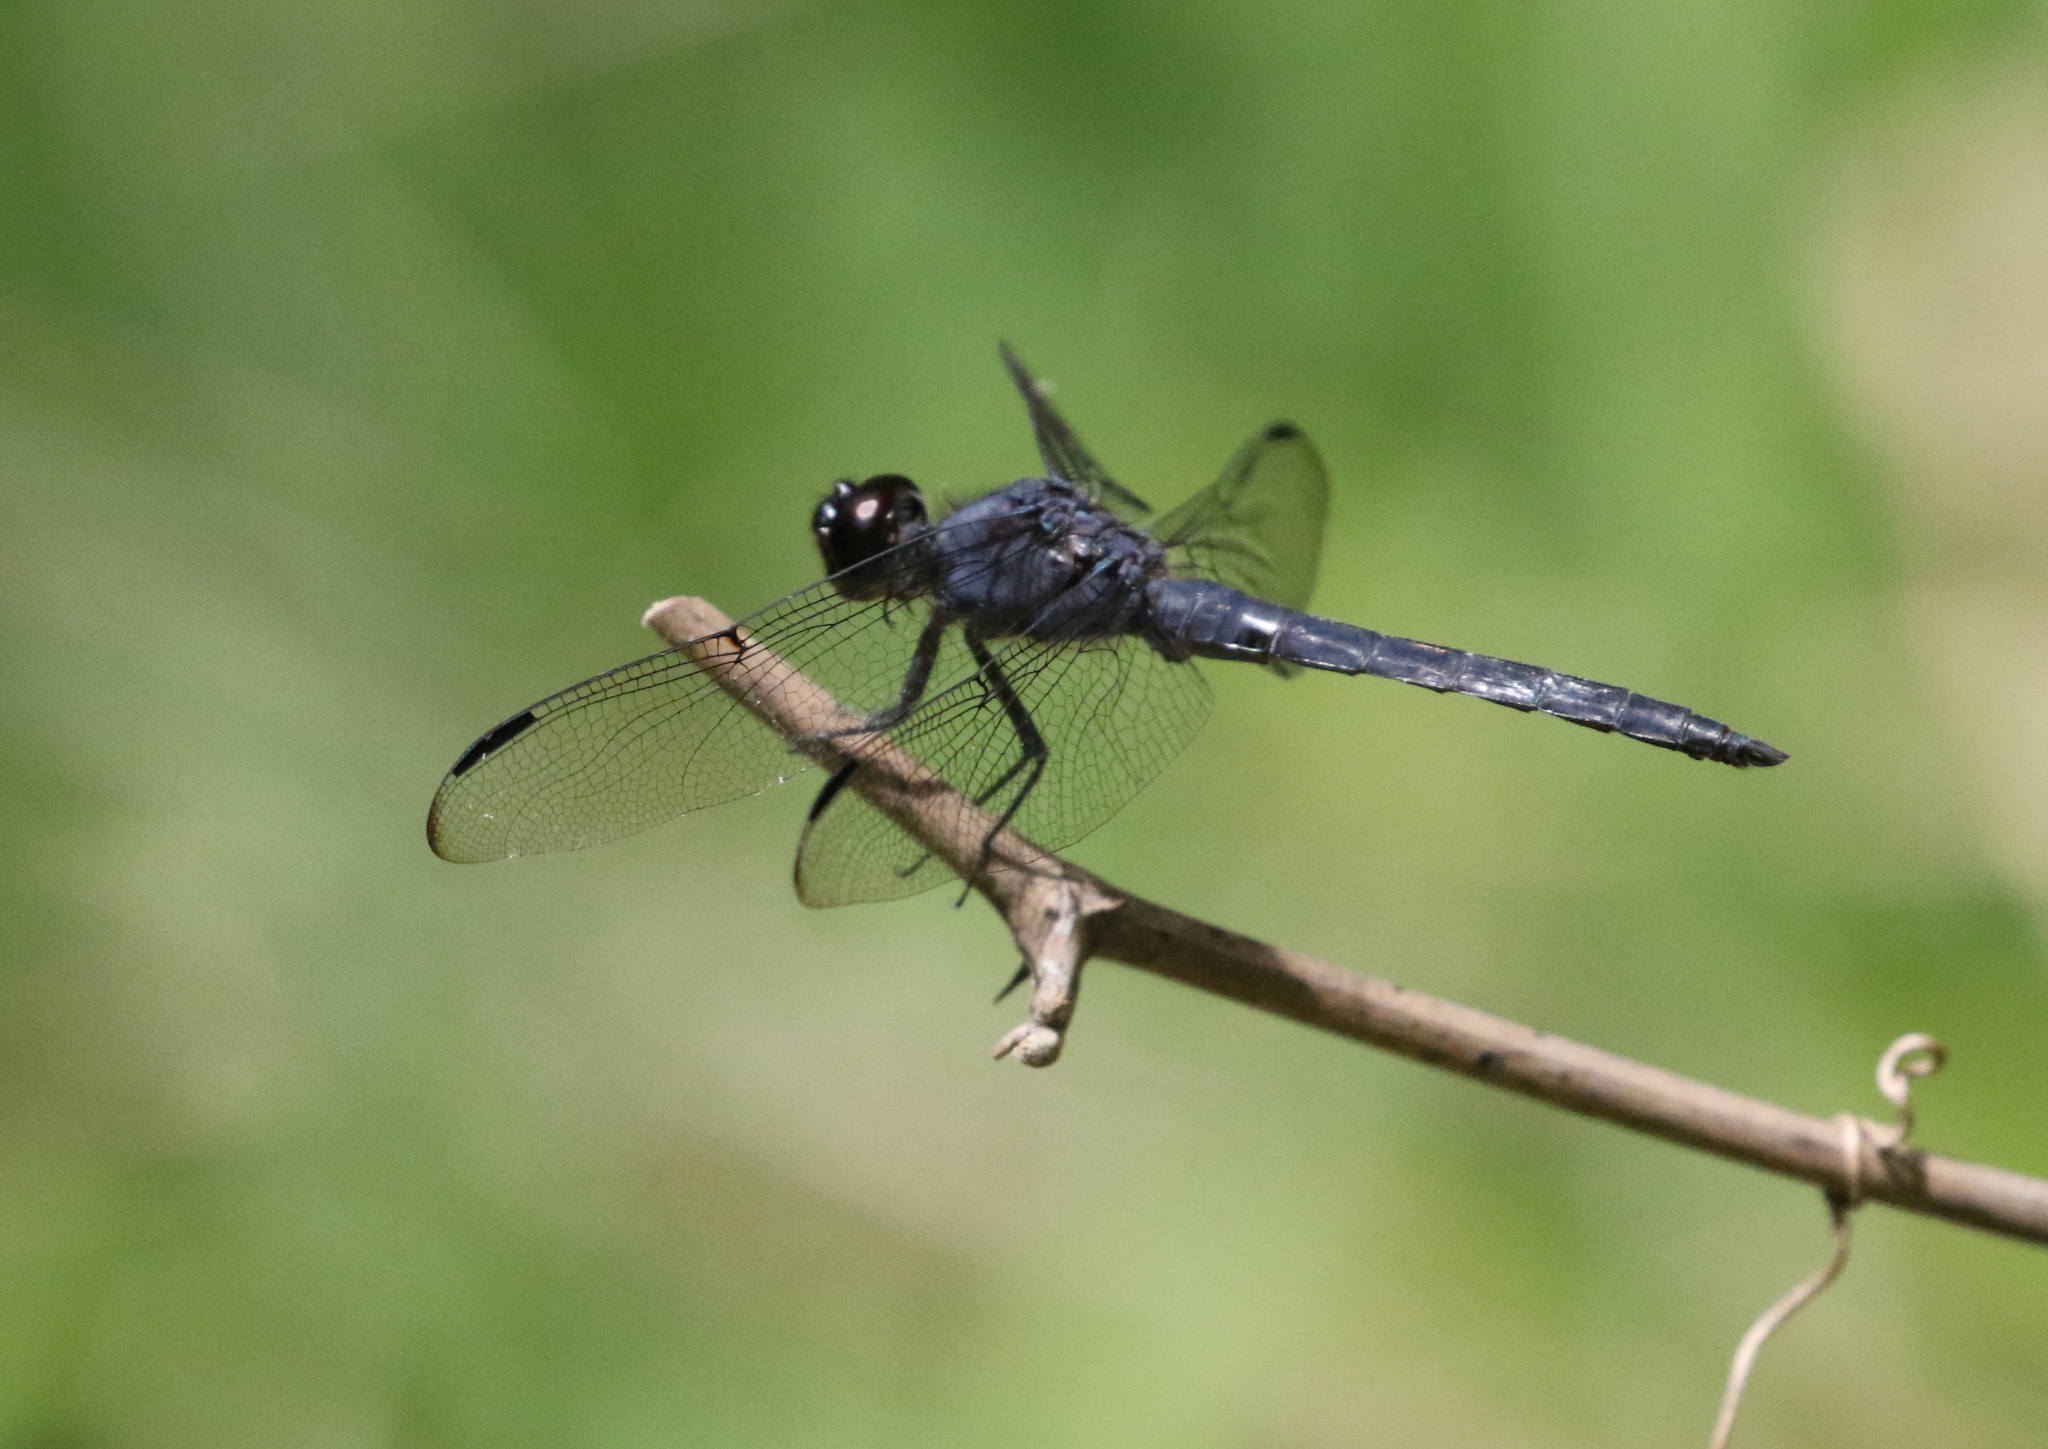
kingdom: Animalia
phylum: Arthropoda
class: Insecta
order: Odonata
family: Libellulidae
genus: Libellula
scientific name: Libellula incesta
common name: Slaty skimmer
